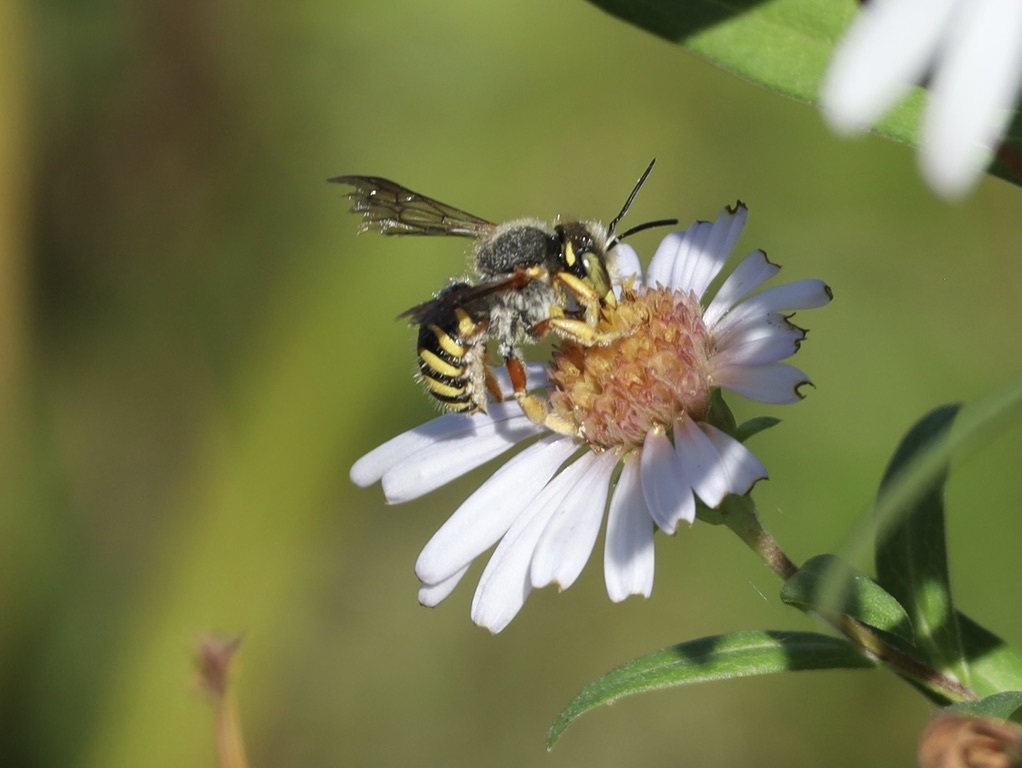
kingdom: Animalia
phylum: Arthropoda
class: Insecta
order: Hymenoptera
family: Megachilidae
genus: Anthidium
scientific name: Anthidium oblongatum
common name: Oblong wool carder bee
